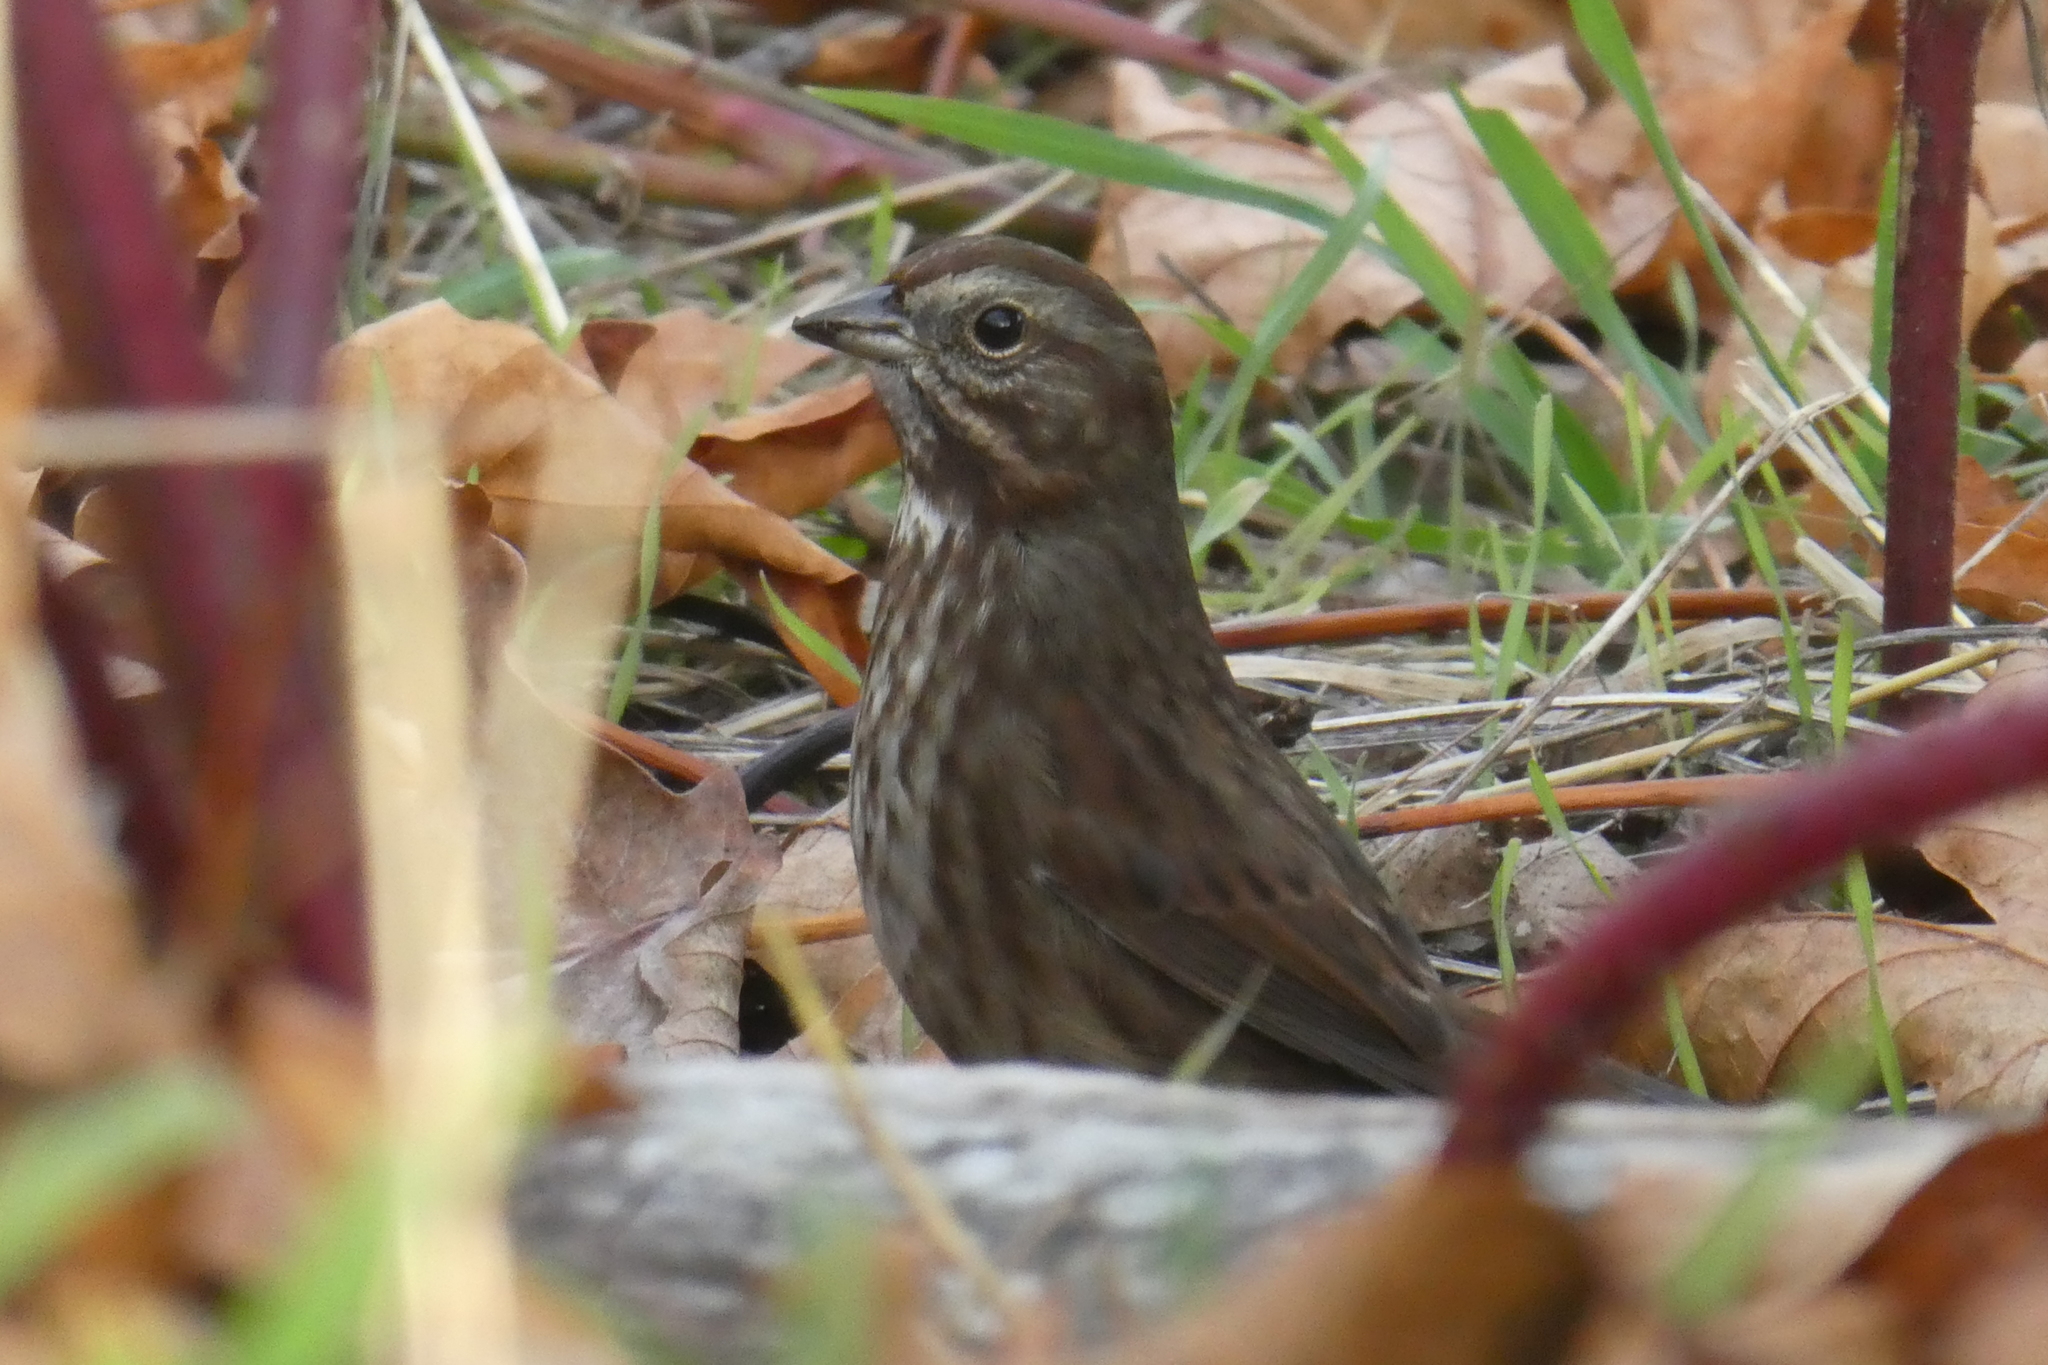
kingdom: Animalia
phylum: Chordata
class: Aves
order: Passeriformes
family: Passerellidae
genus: Melospiza
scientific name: Melospiza melodia
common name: Song sparrow
